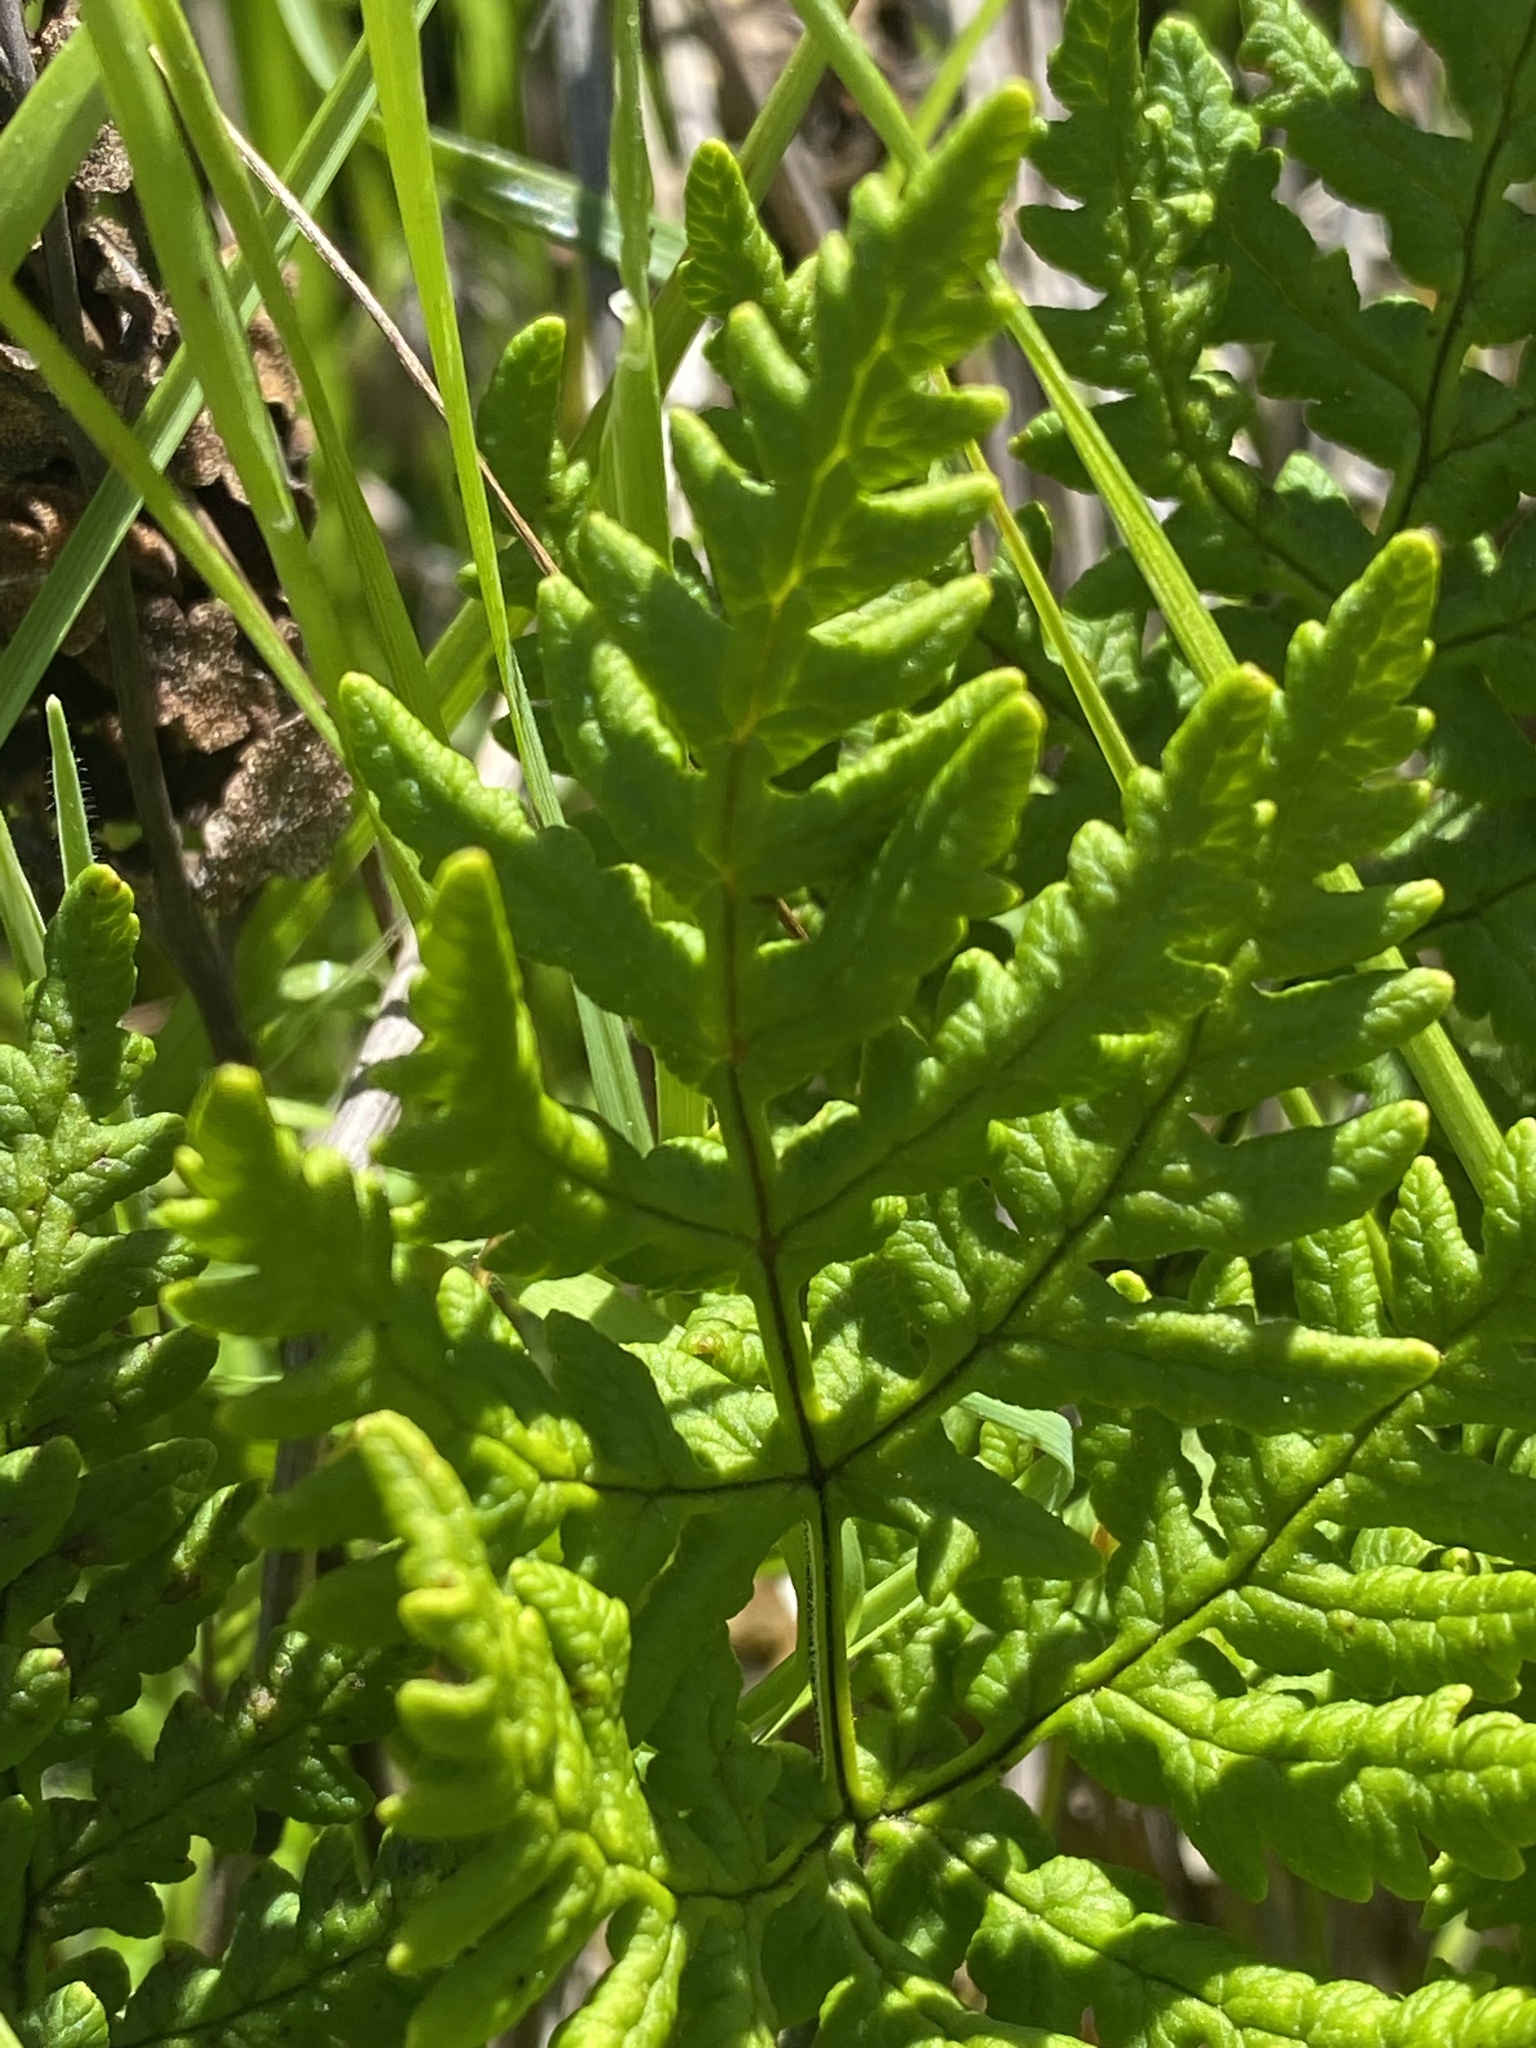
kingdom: Plantae
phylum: Tracheophyta
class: Polypodiopsida
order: Polypodiales
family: Pteridaceae
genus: Pentagramma
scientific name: Pentagramma triangularis
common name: Gold fern
